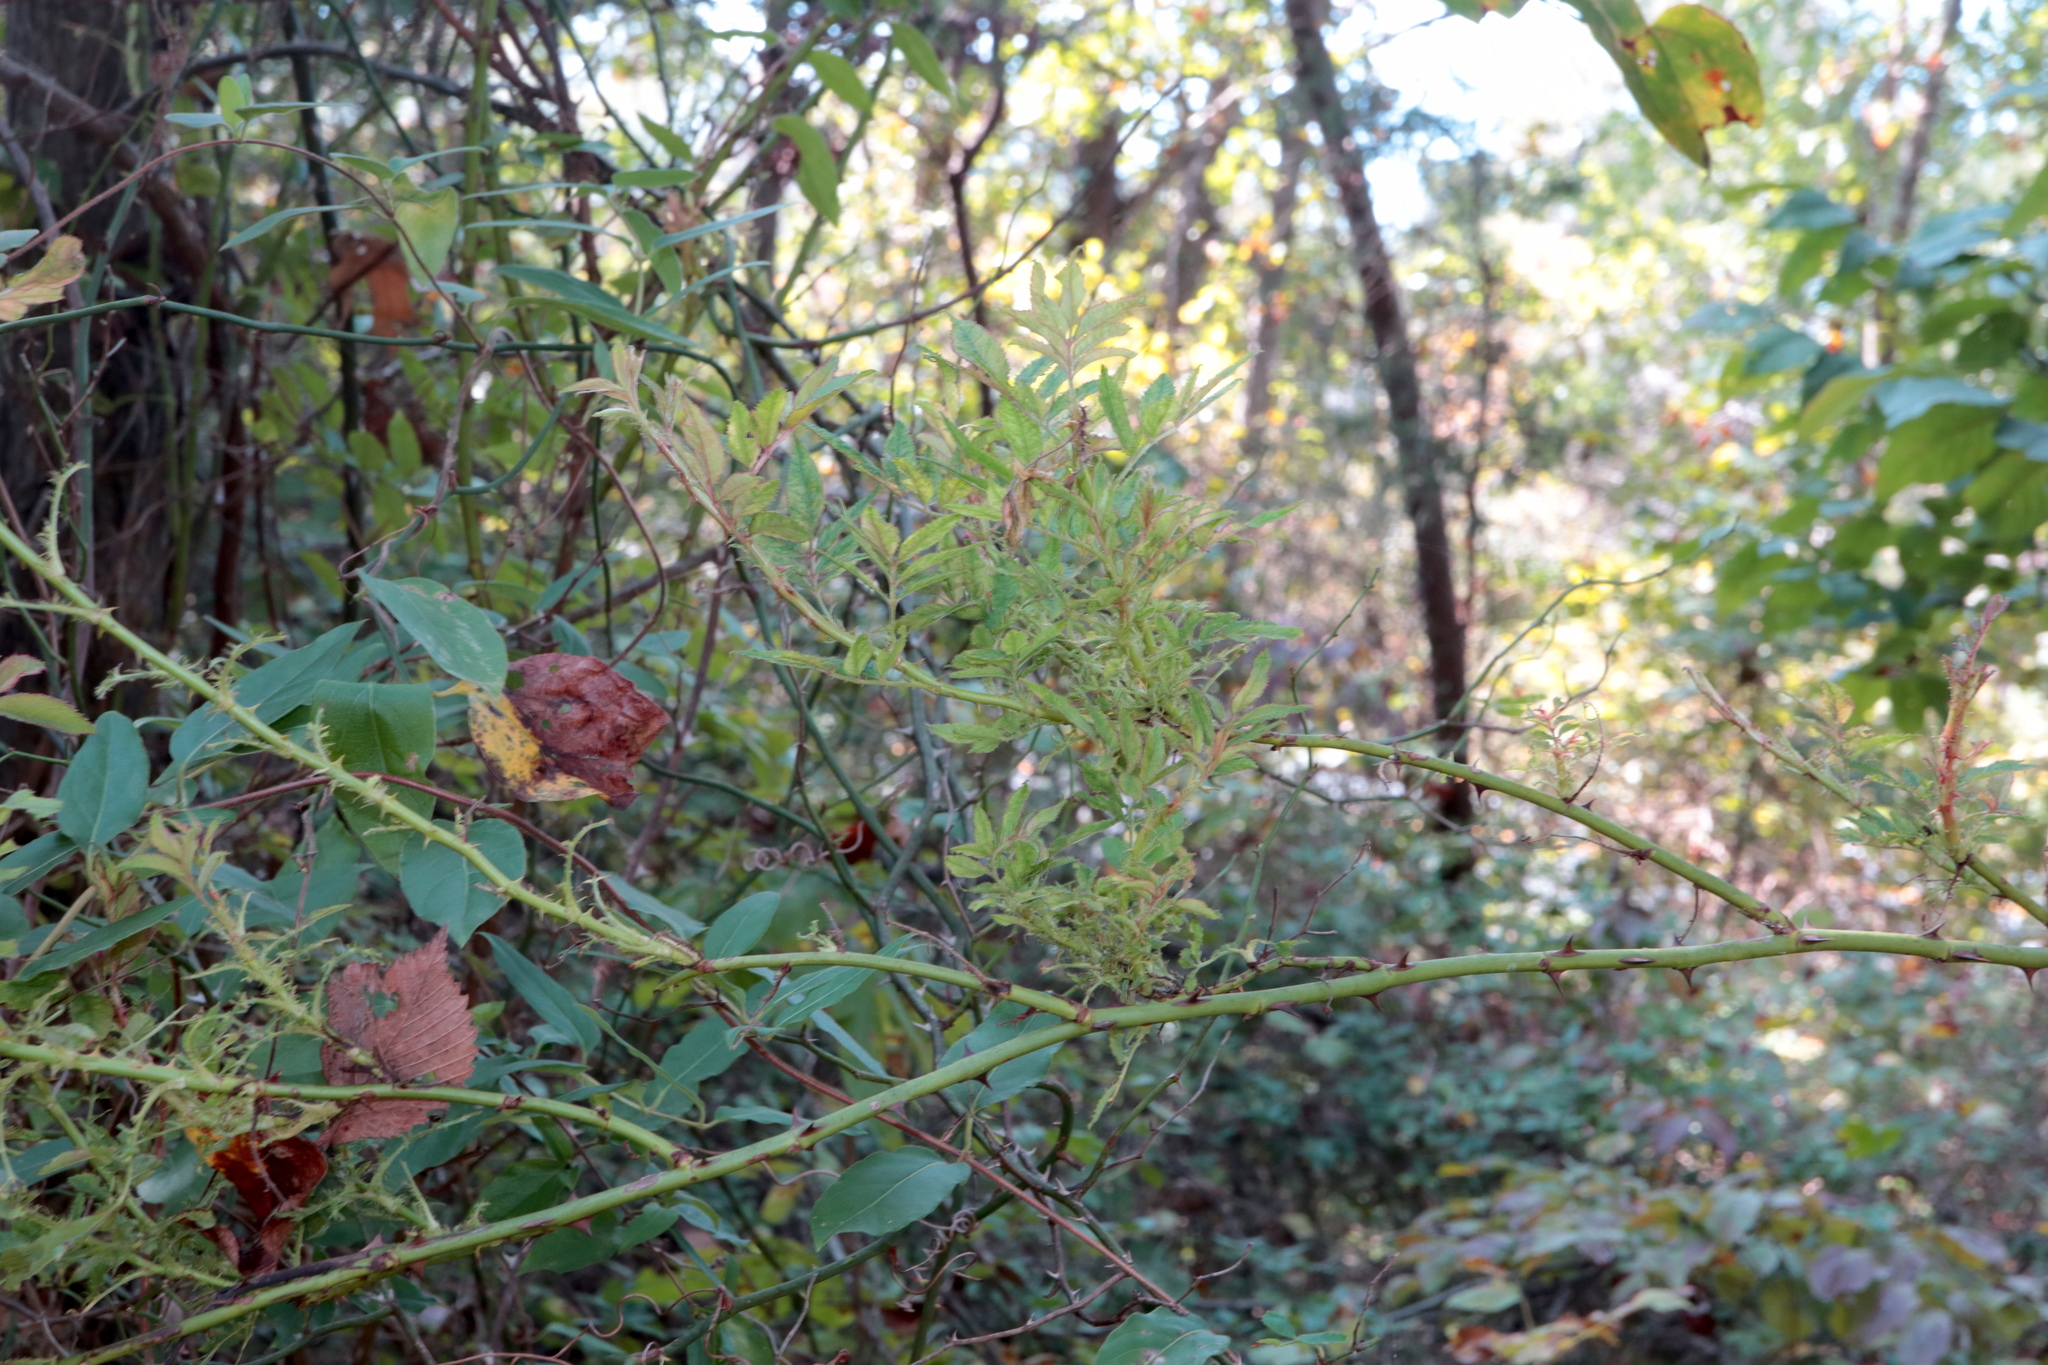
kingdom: Plantae
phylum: Tracheophyta
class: Magnoliopsida
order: Rosales
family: Rosaceae
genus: Rosa
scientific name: Rosa multiflora
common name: Multiflora rose
